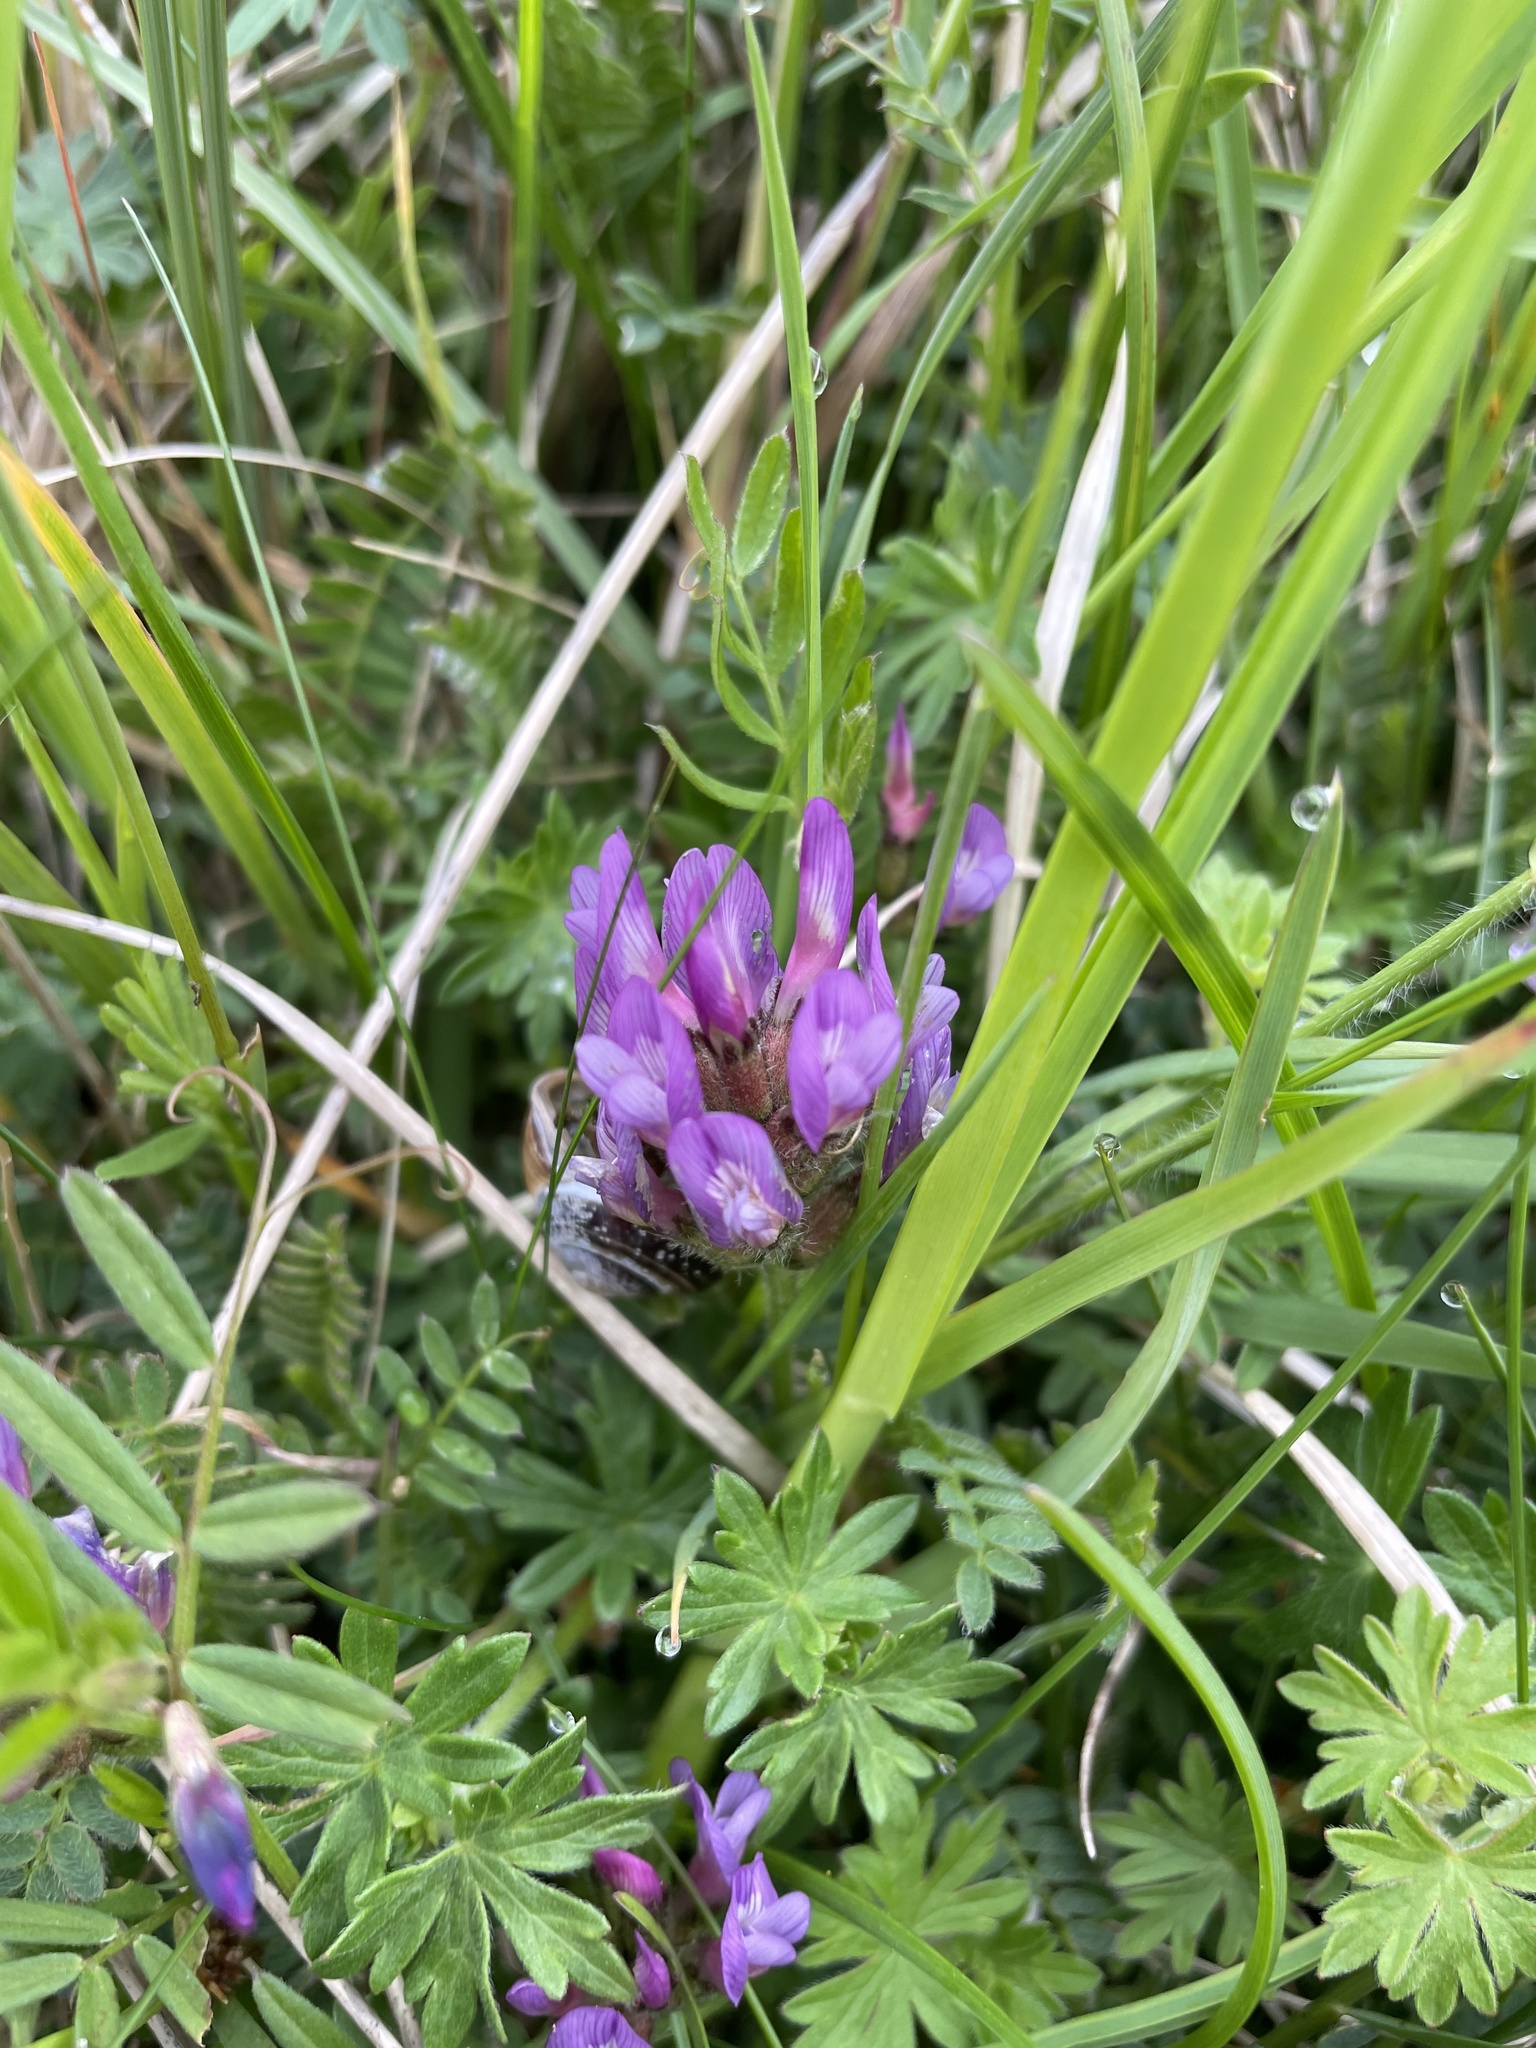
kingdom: Plantae
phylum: Tracheophyta
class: Magnoliopsida
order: Fabales
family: Fabaceae
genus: Astragalus
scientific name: Astragalus danicus
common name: Purple milk-vetch
